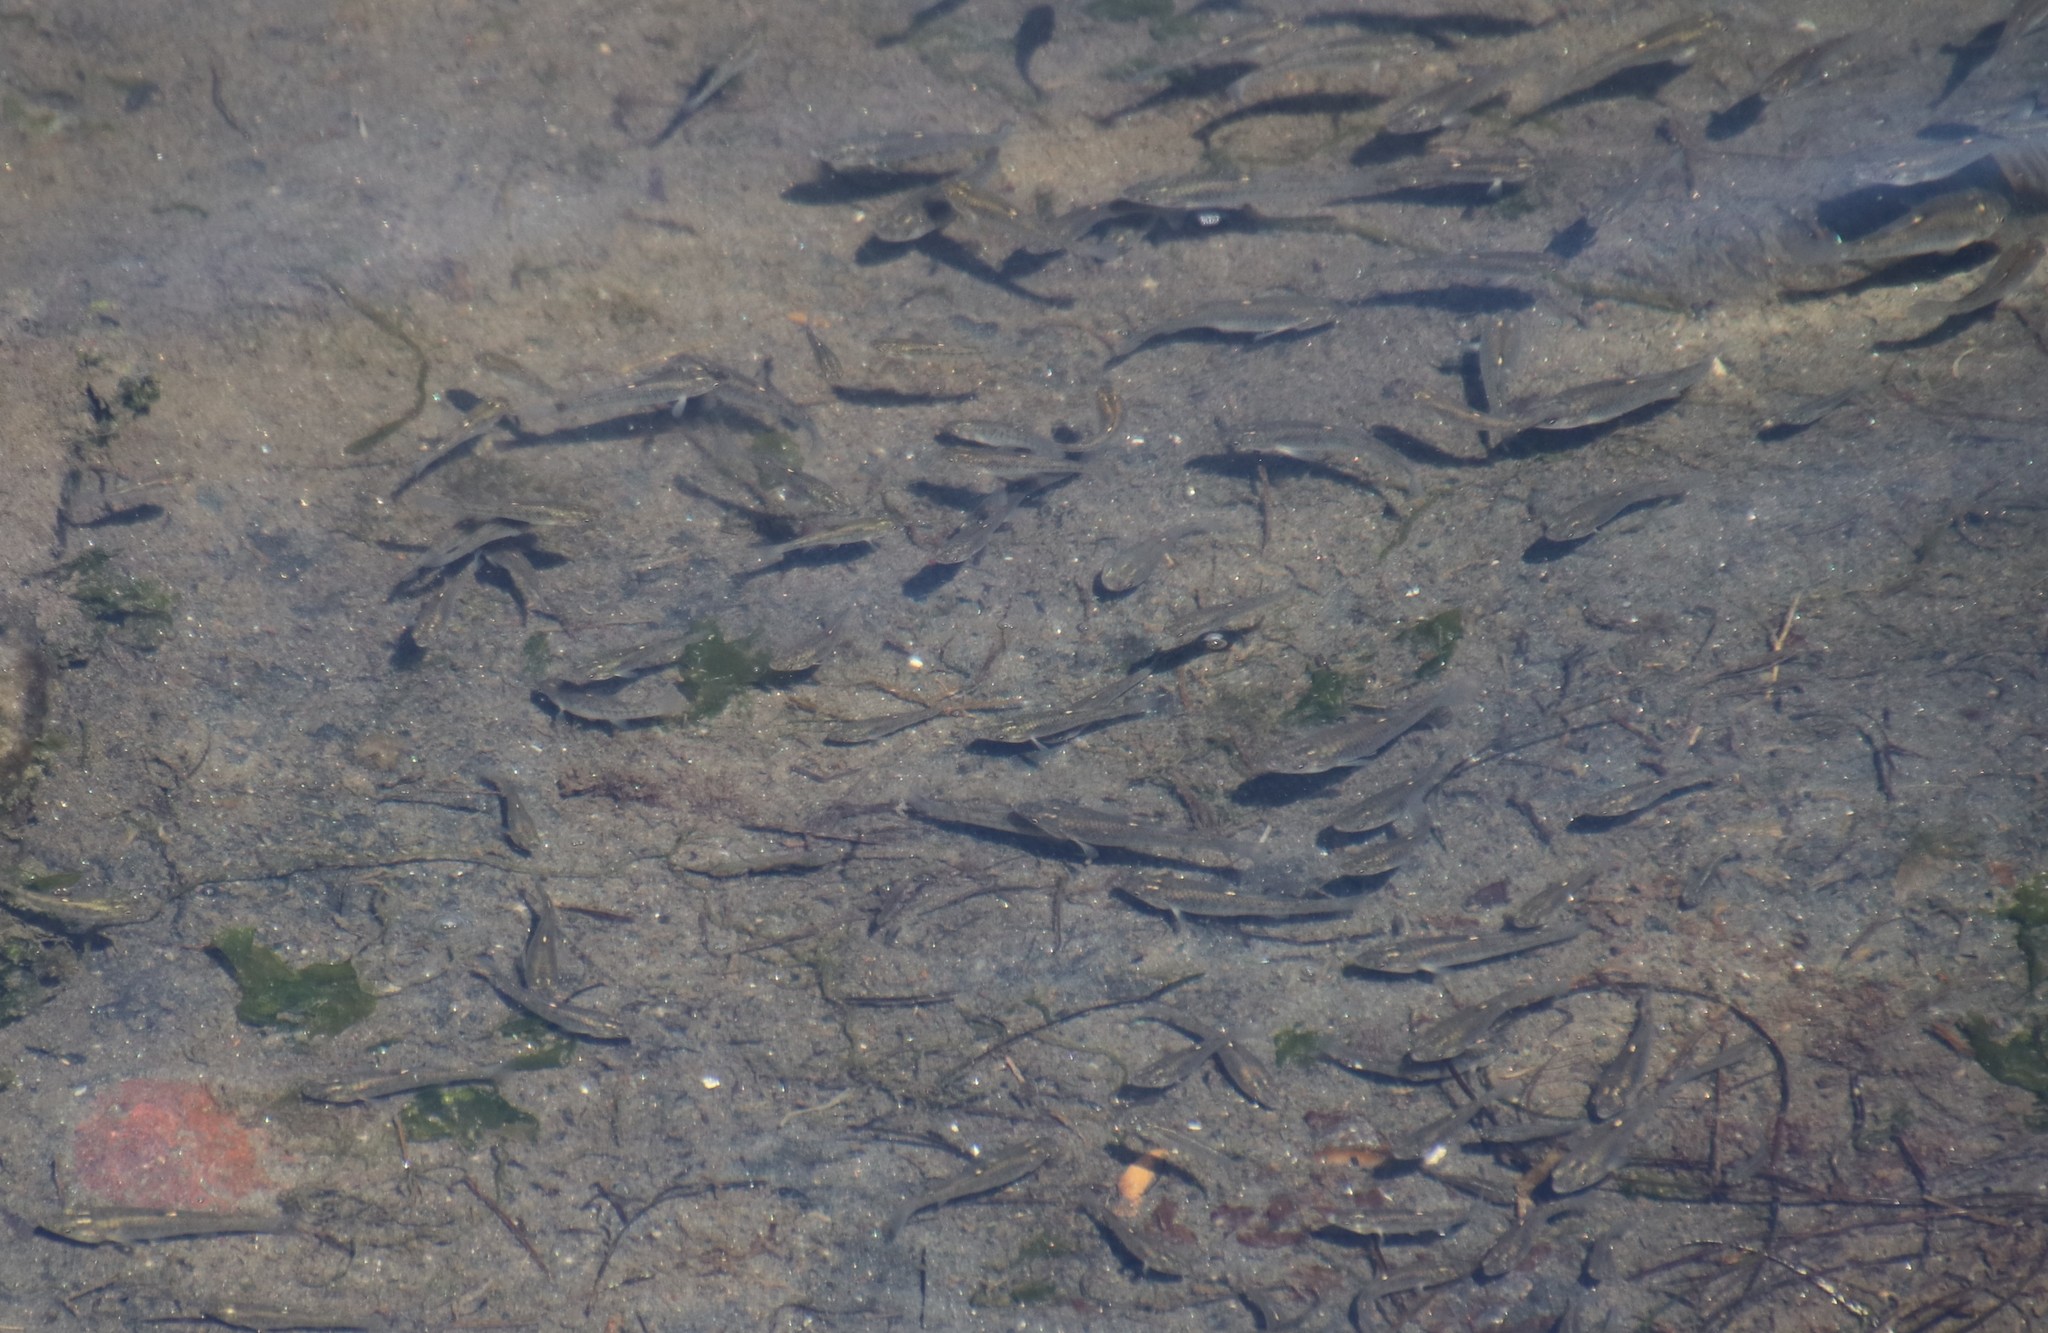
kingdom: Animalia
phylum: Chordata
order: Cyprinodontiformes
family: Fundulidae
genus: Fundulus
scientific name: Fundulus parvipinnis
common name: California killifish
